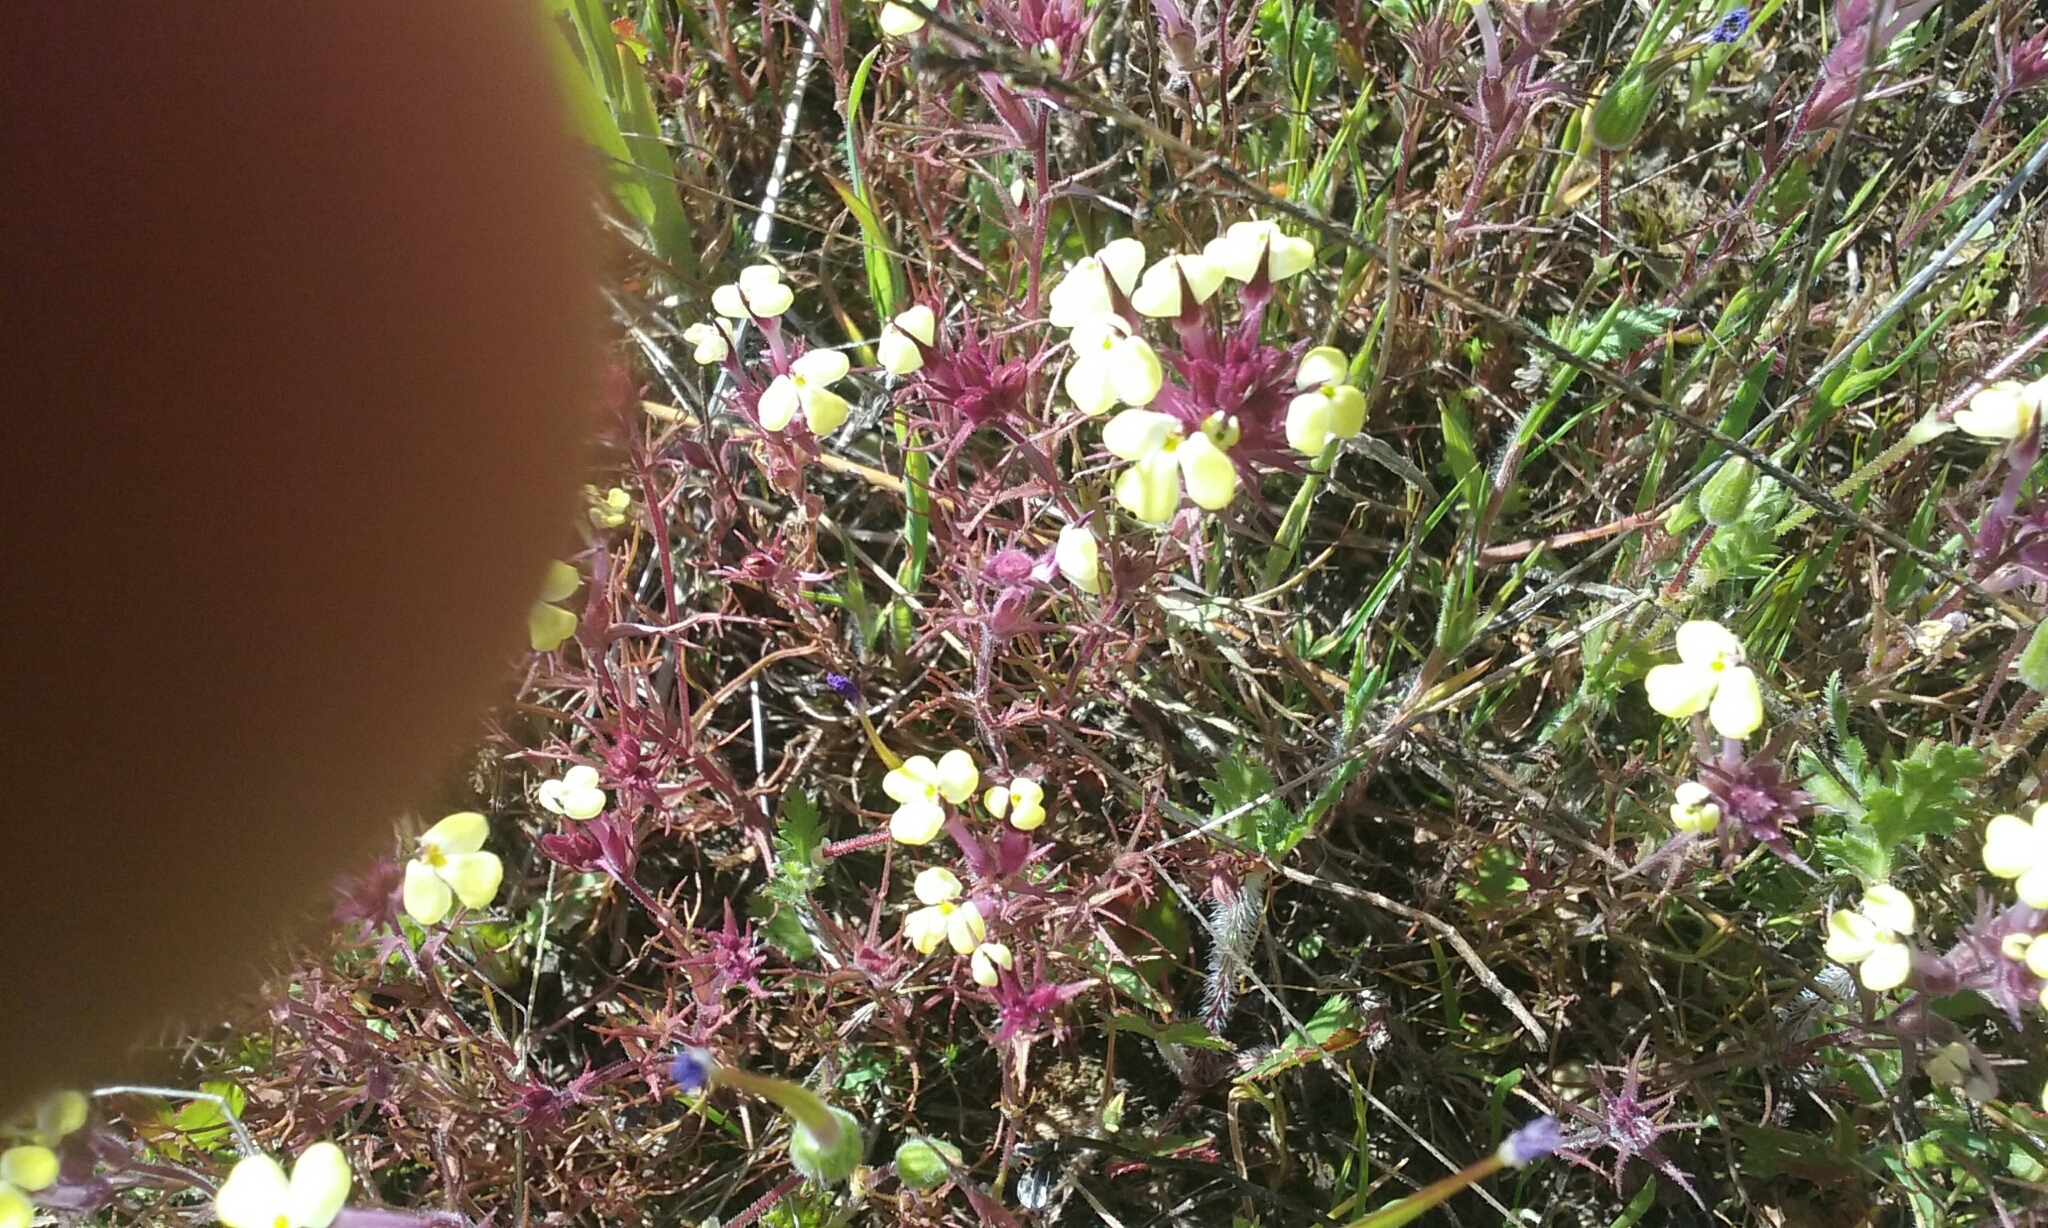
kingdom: Plantae
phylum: Tracheophyta
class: Magnoliopsida
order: Lamiales
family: Orobanchaceae
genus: Triphysaria
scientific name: Triphysaria eriantha
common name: Johnny-tuck
